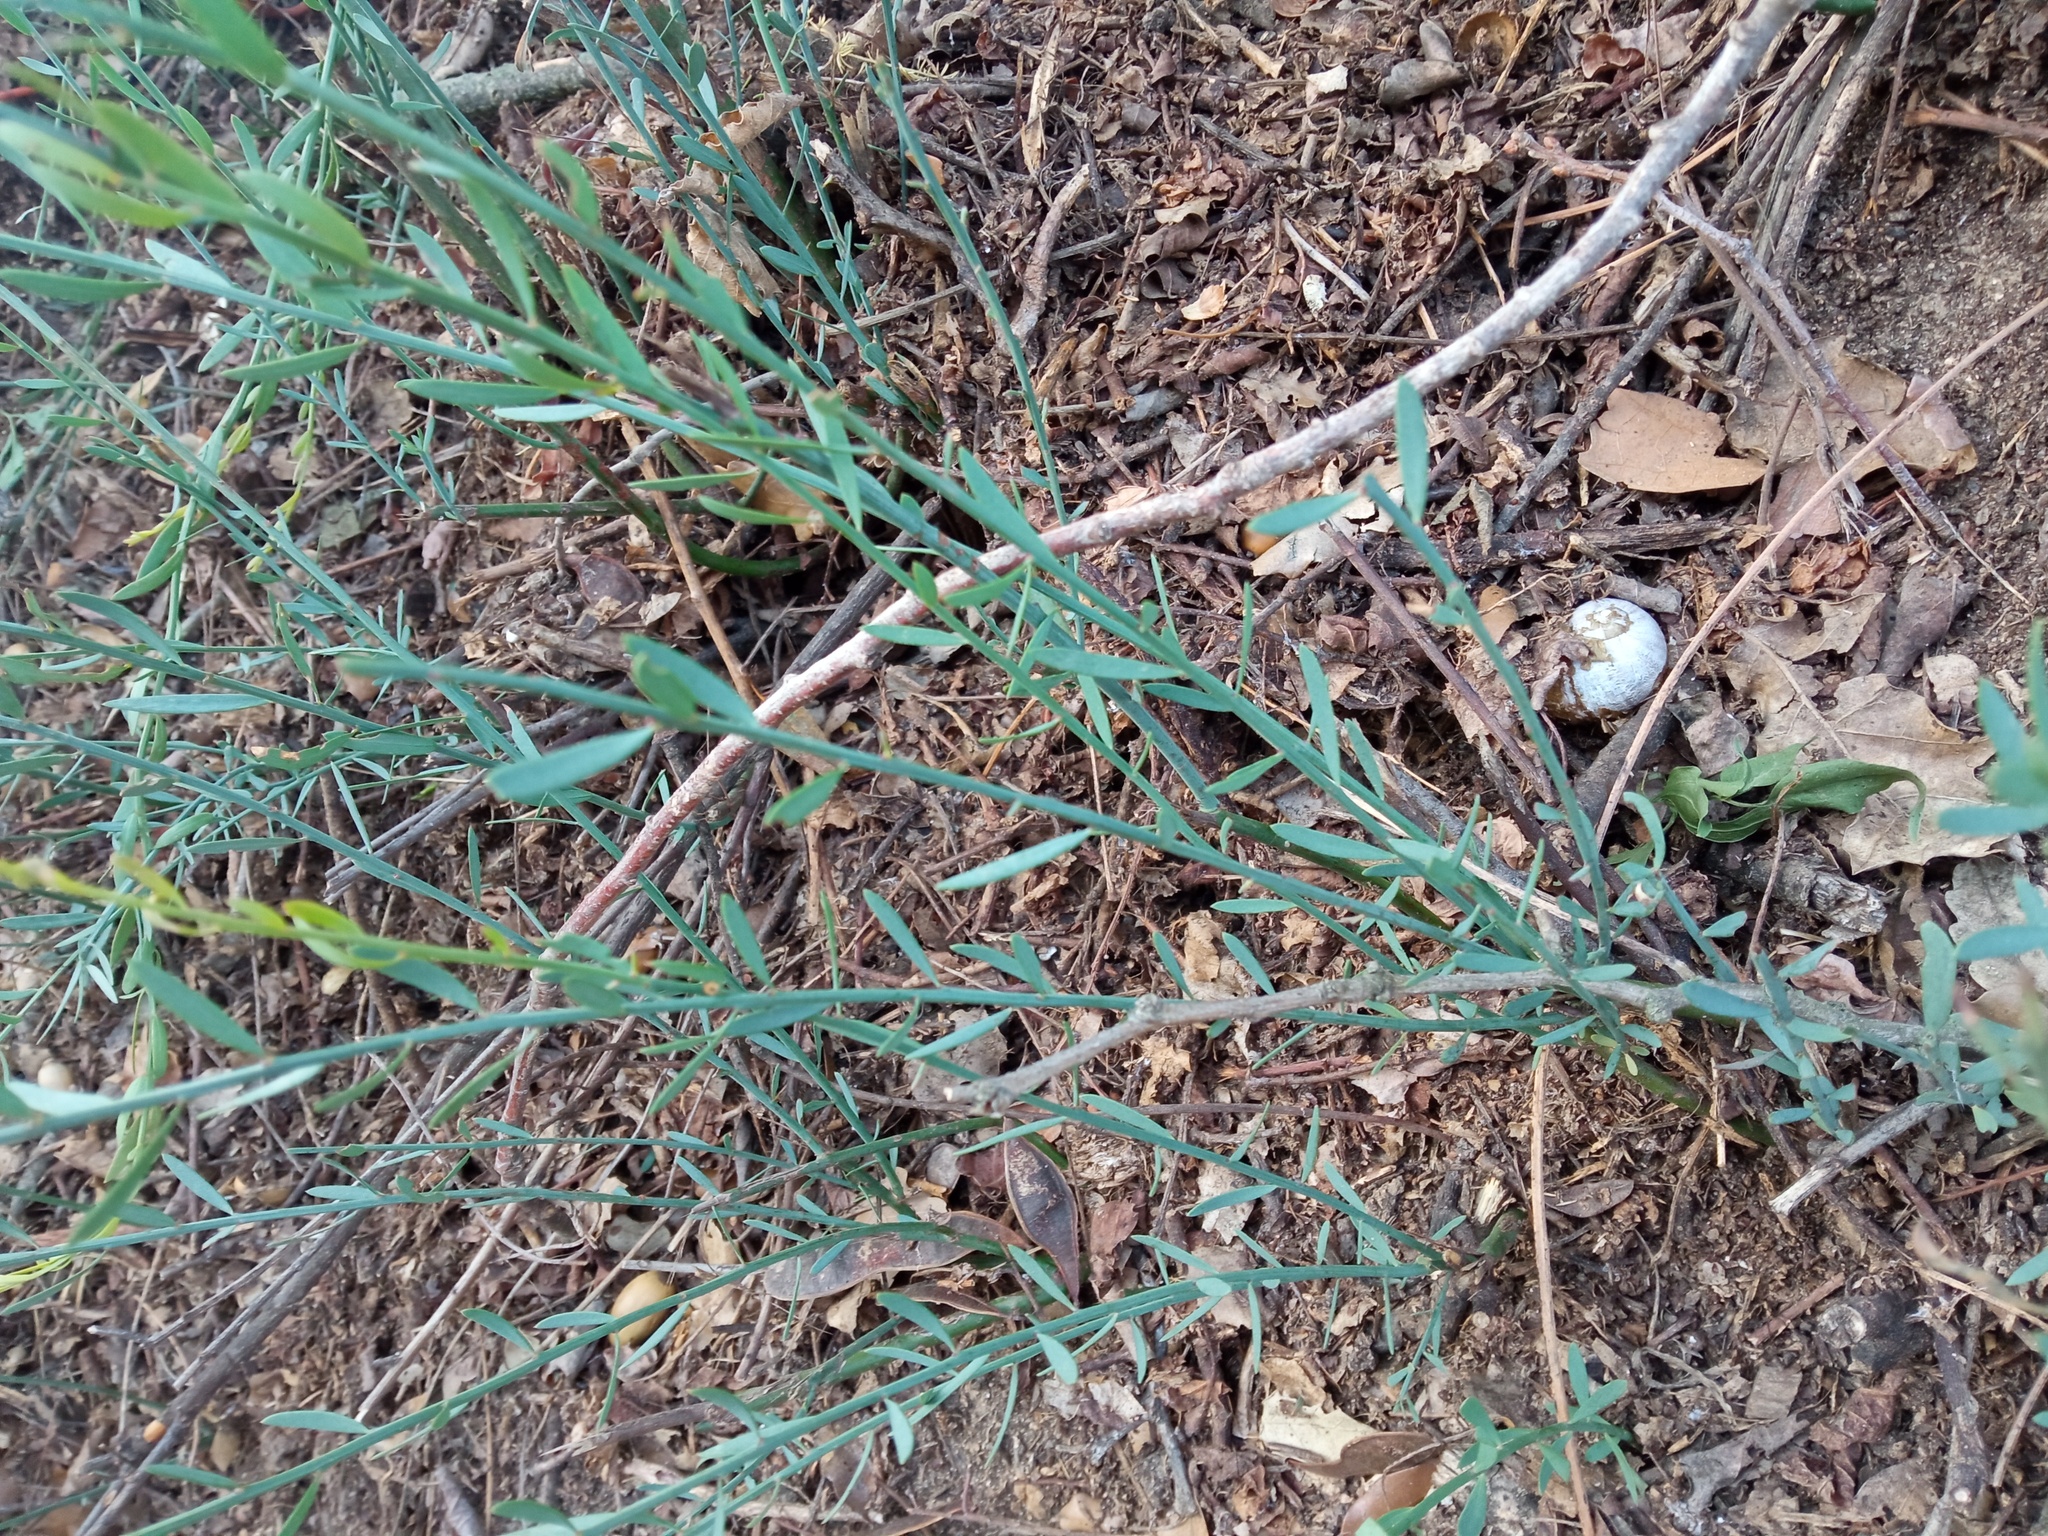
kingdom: Plantae
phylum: Tracheophyta
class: Magnoliopsida
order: Santalales
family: Santalaceae
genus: Osyris
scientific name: Osyris alba
